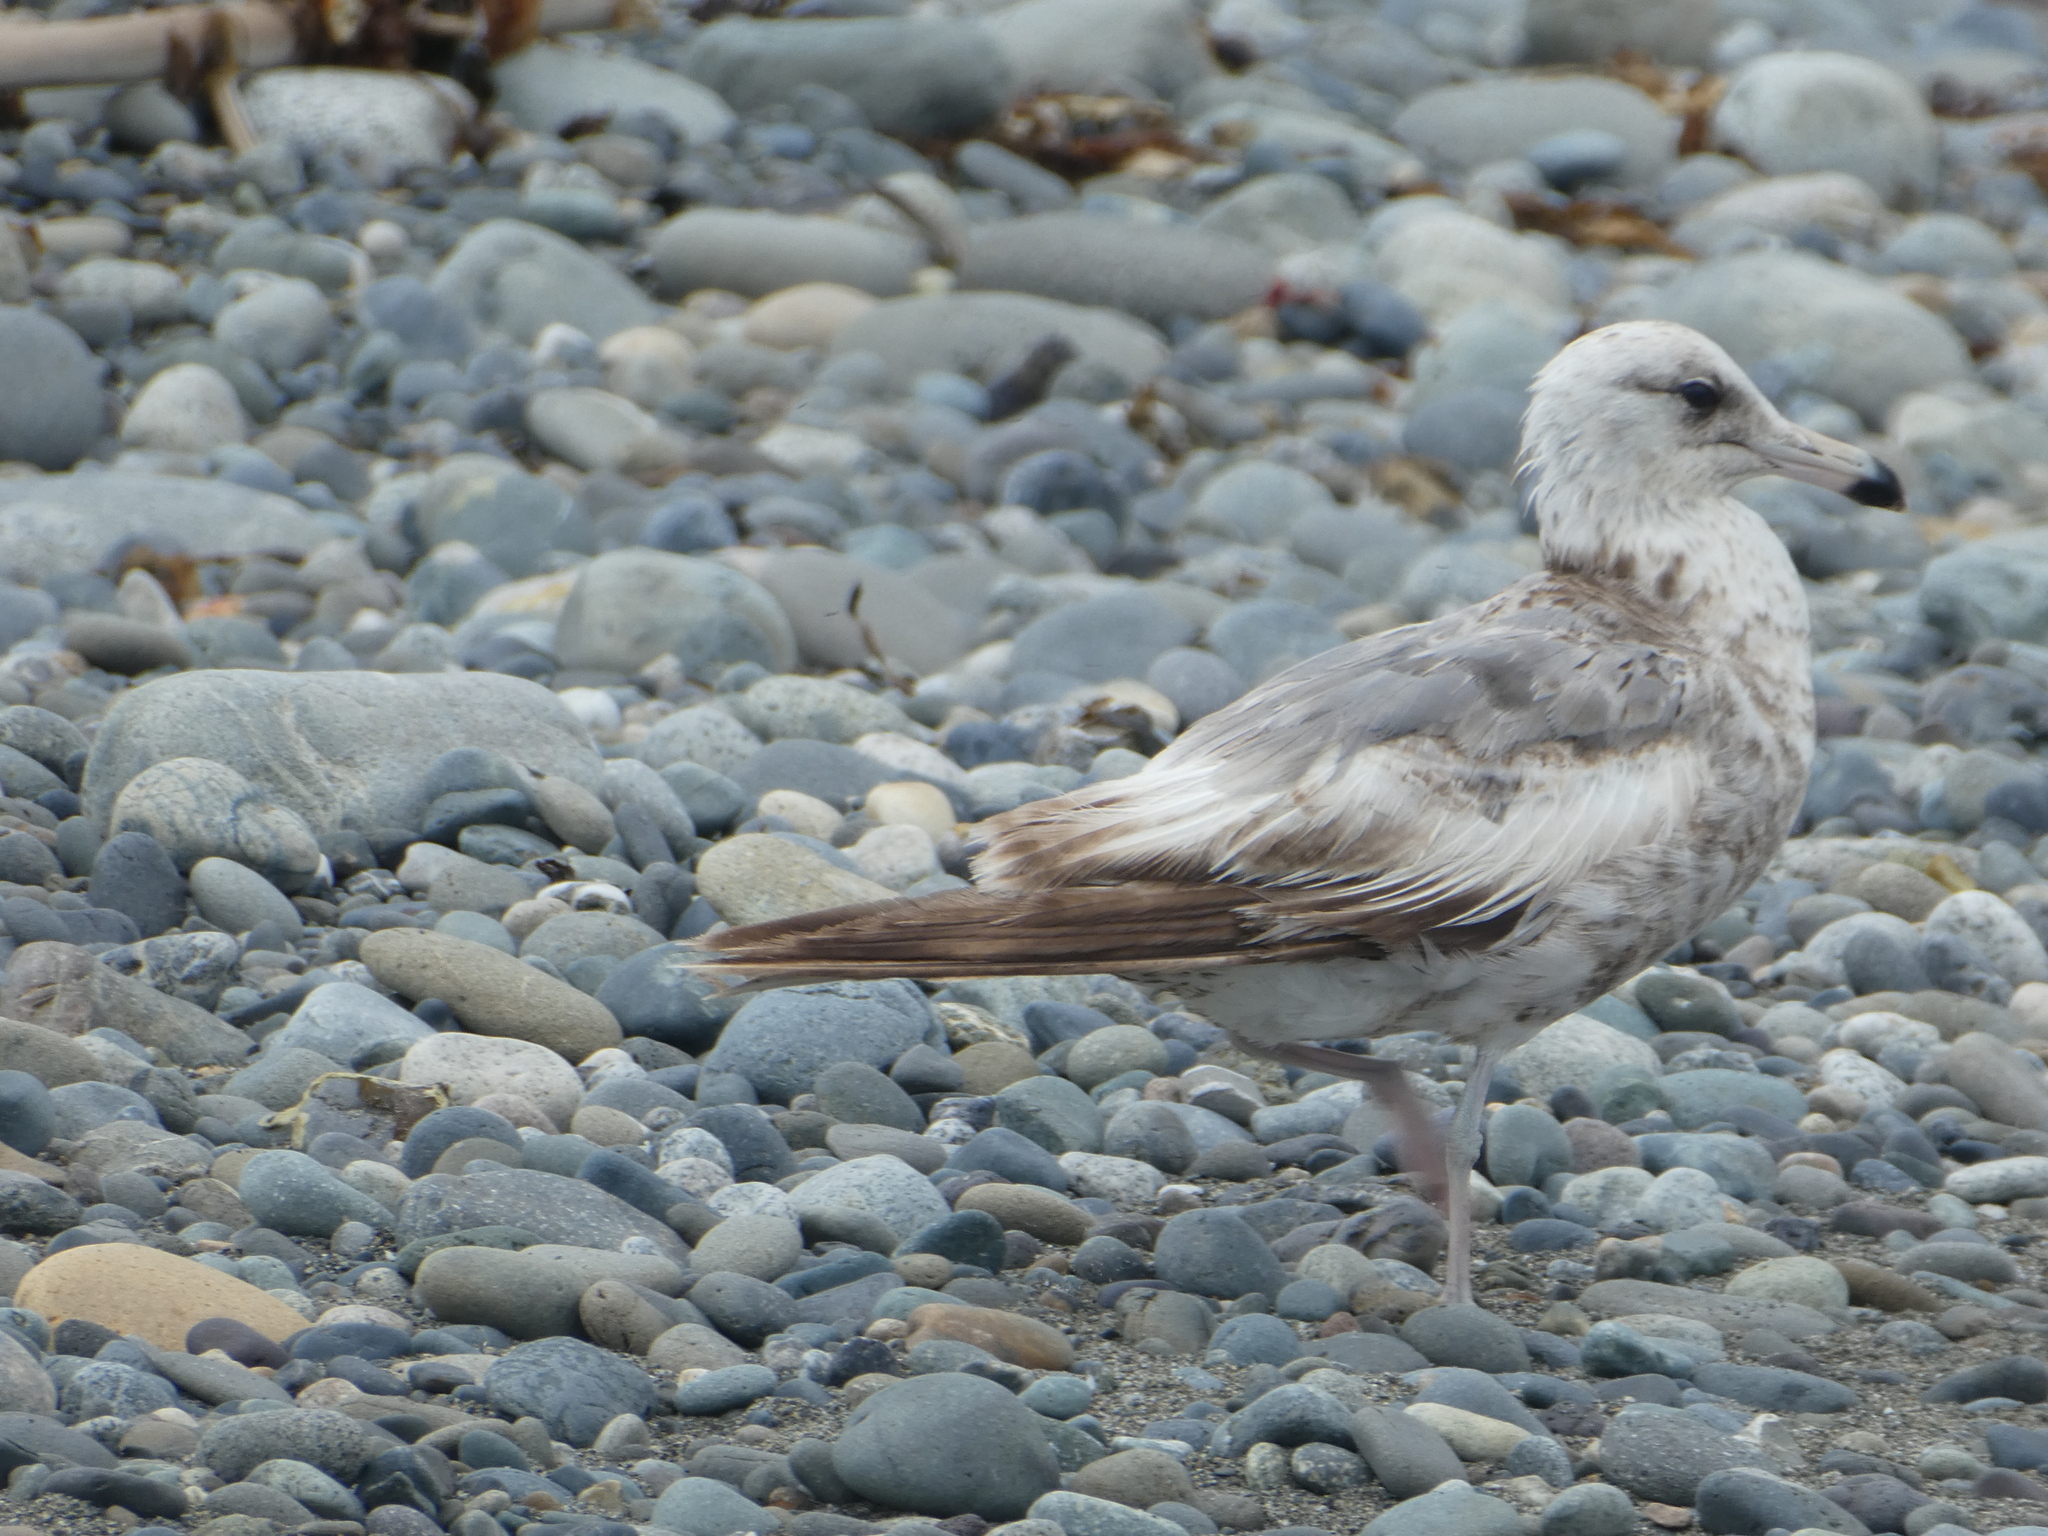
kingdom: Animalia
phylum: Chordata
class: Aves
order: Charadriiformes
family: Laridae
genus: Larus
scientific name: Larus californicus
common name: California gull
